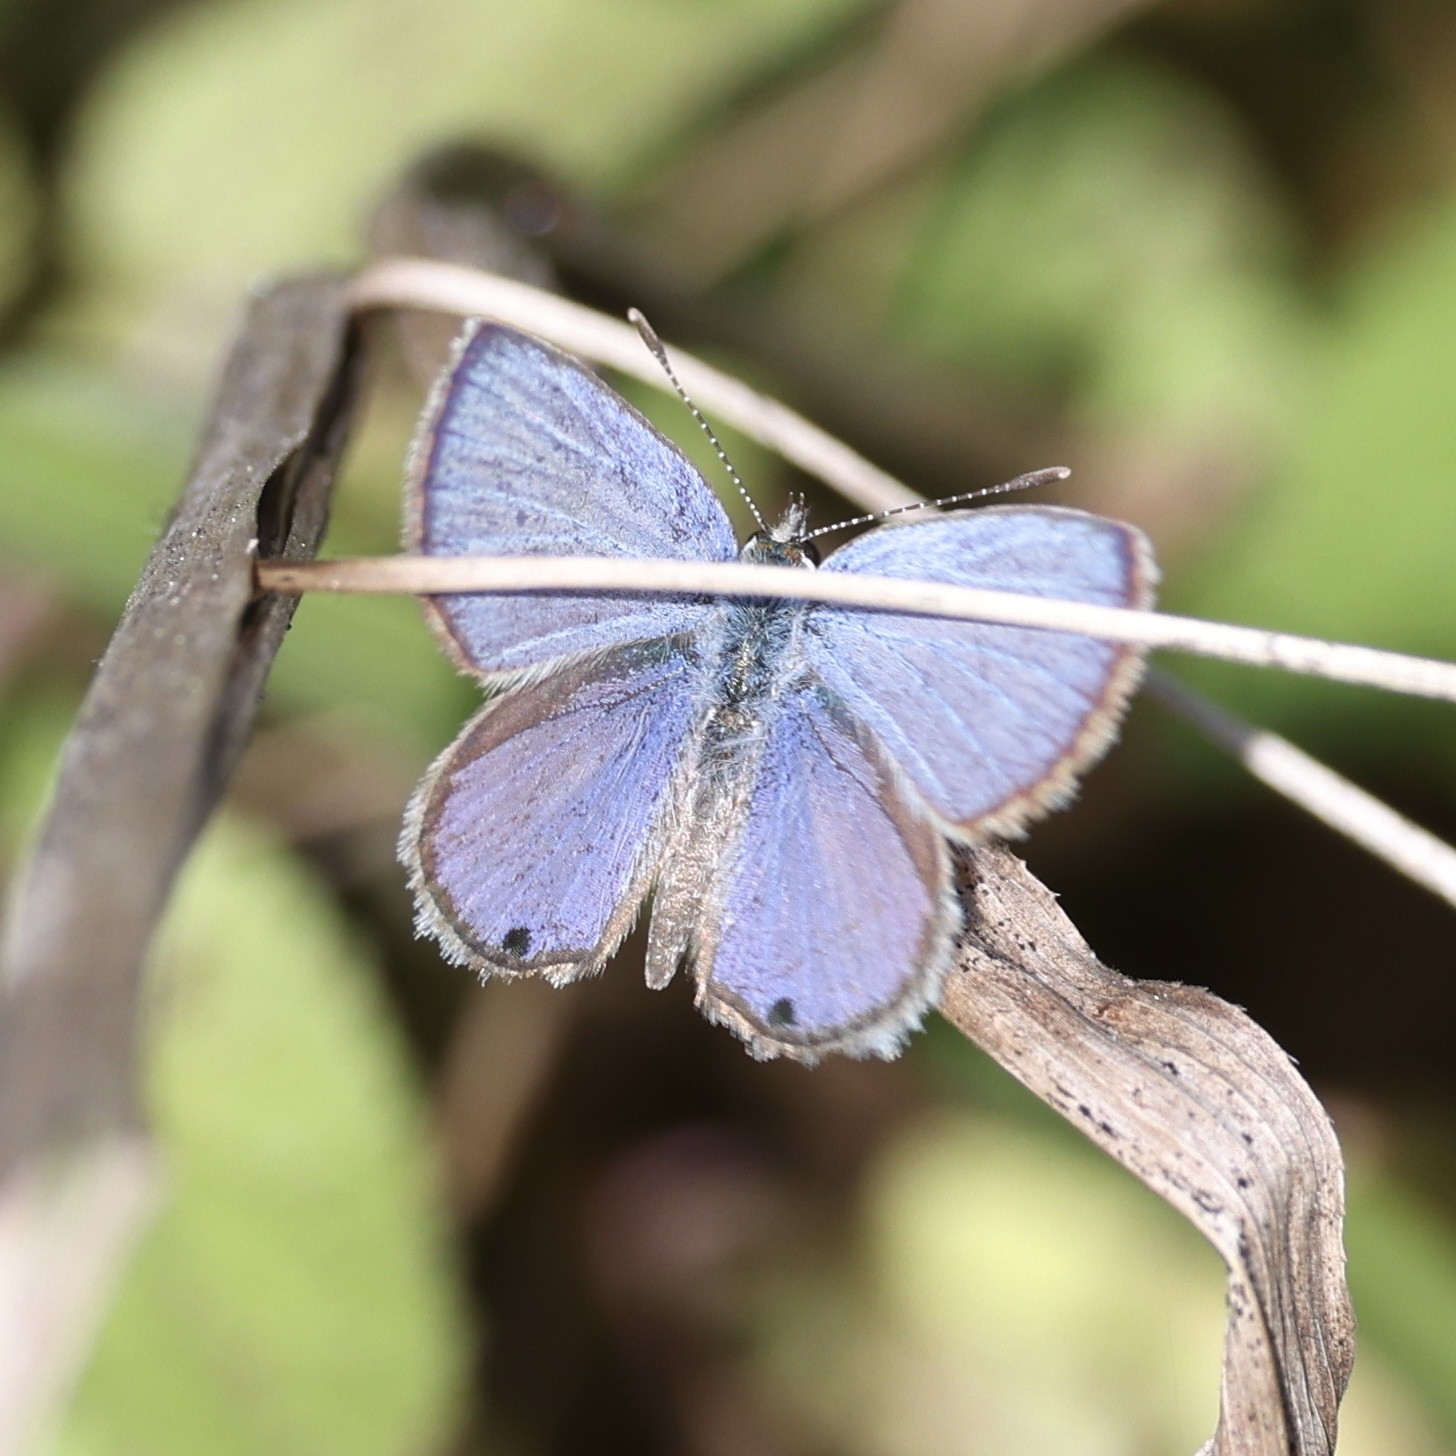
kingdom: Animalia
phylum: Arthropoda
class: Insecta
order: Lepidoptera
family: Lycaenidae
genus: Hemiargus
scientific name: Hemiargus ceraunus
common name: Ceraunus blue
